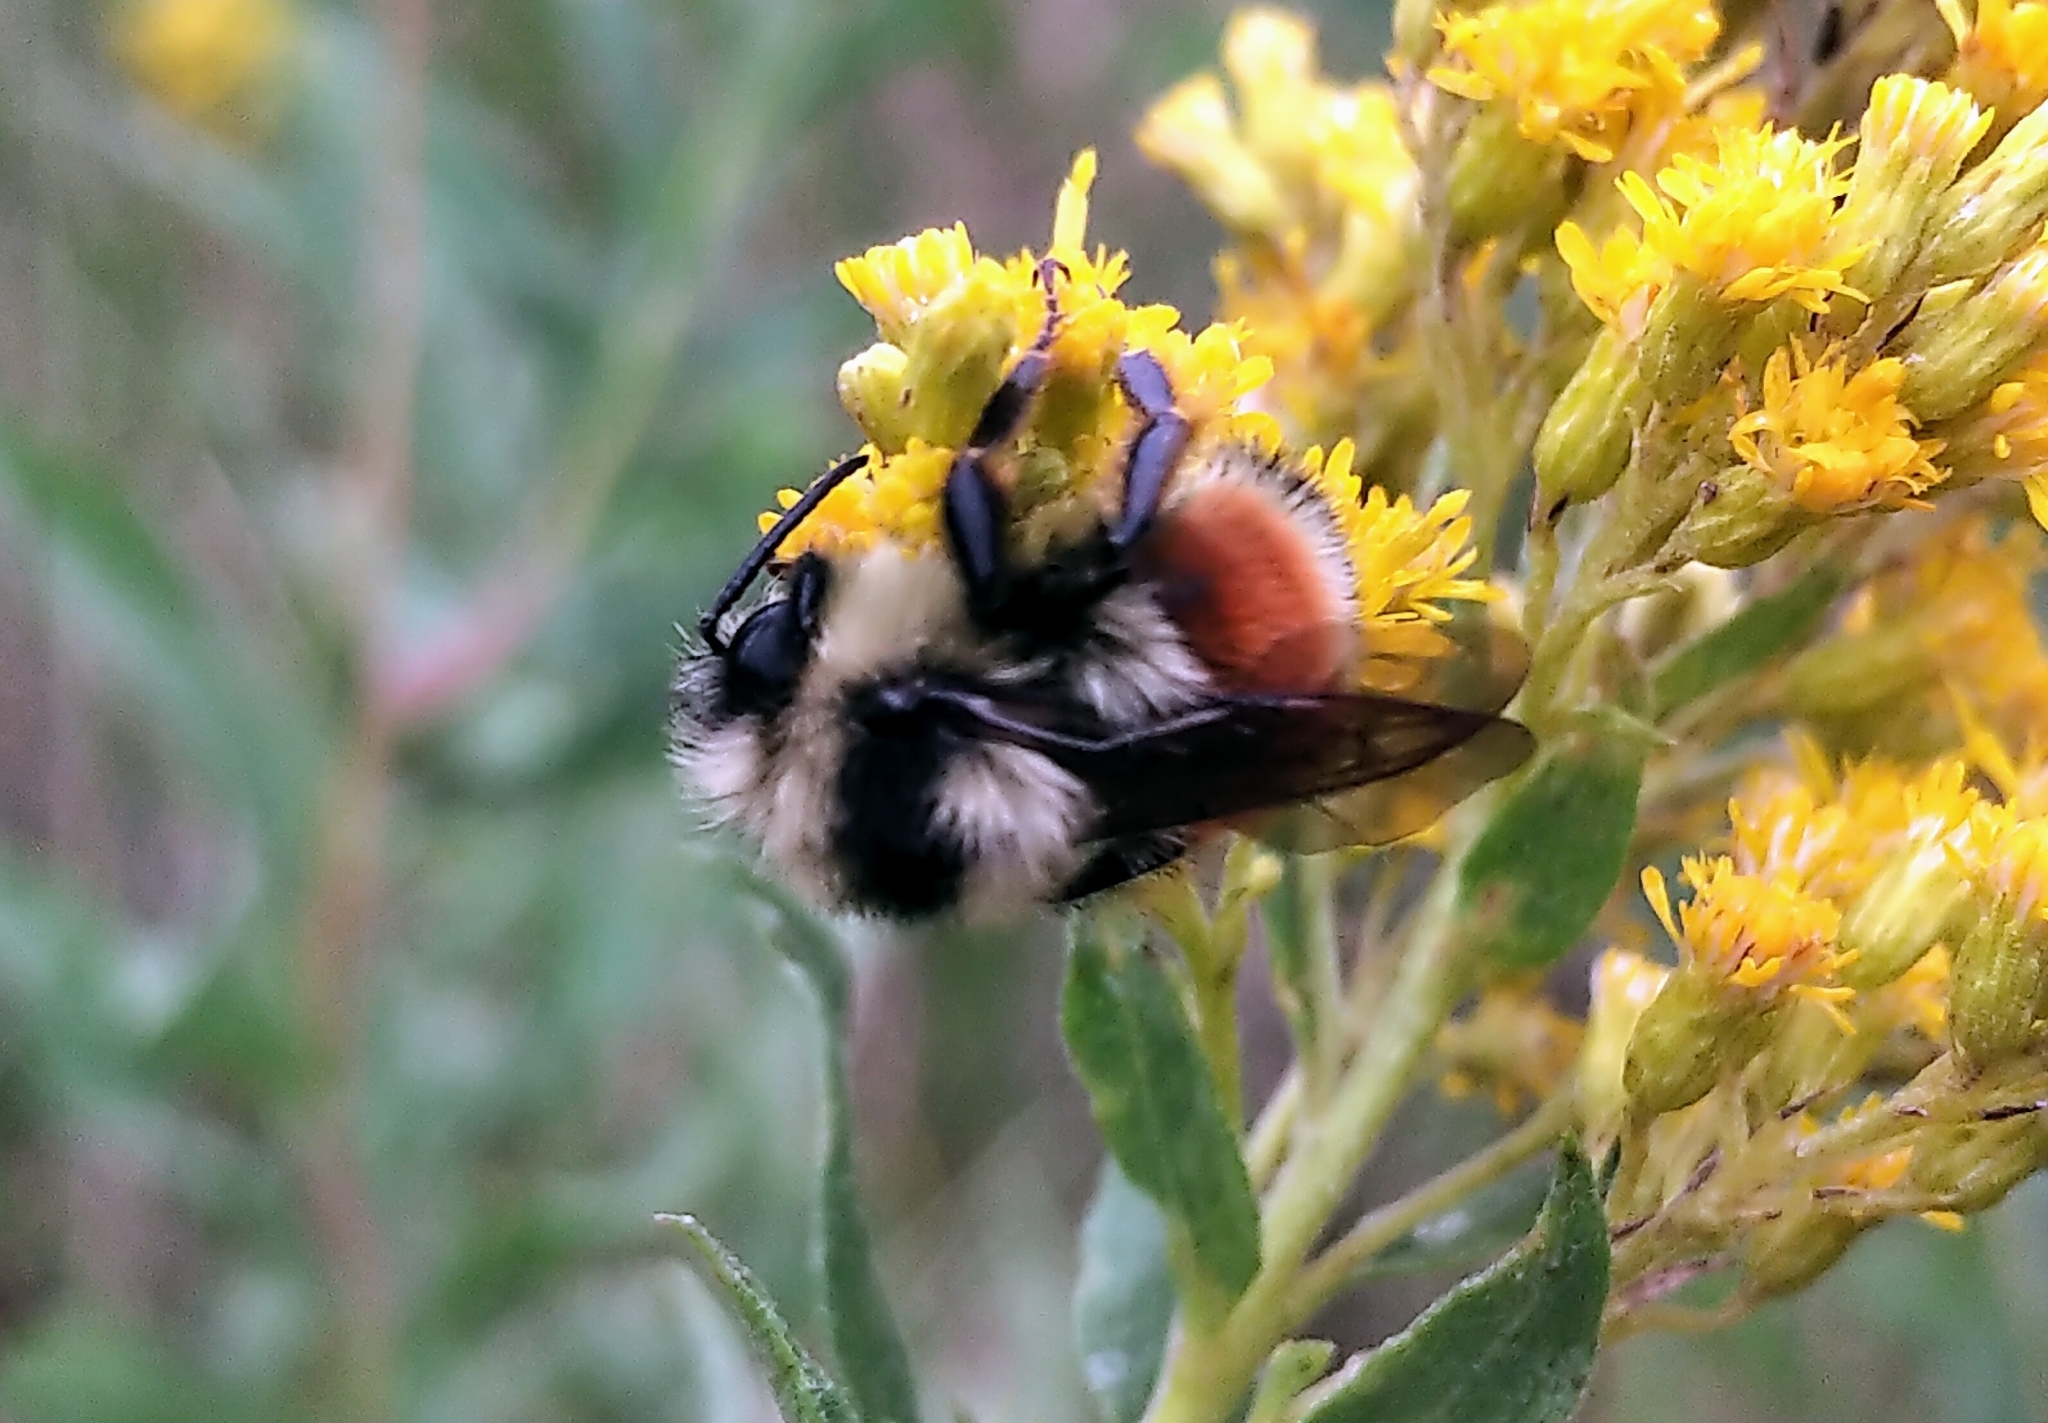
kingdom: Animalia
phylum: Arthropoda
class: Insecta
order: Hymenoptera
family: Apidae
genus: Bombus
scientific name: Bombus ternarius
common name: Tri-colored bumble bee
